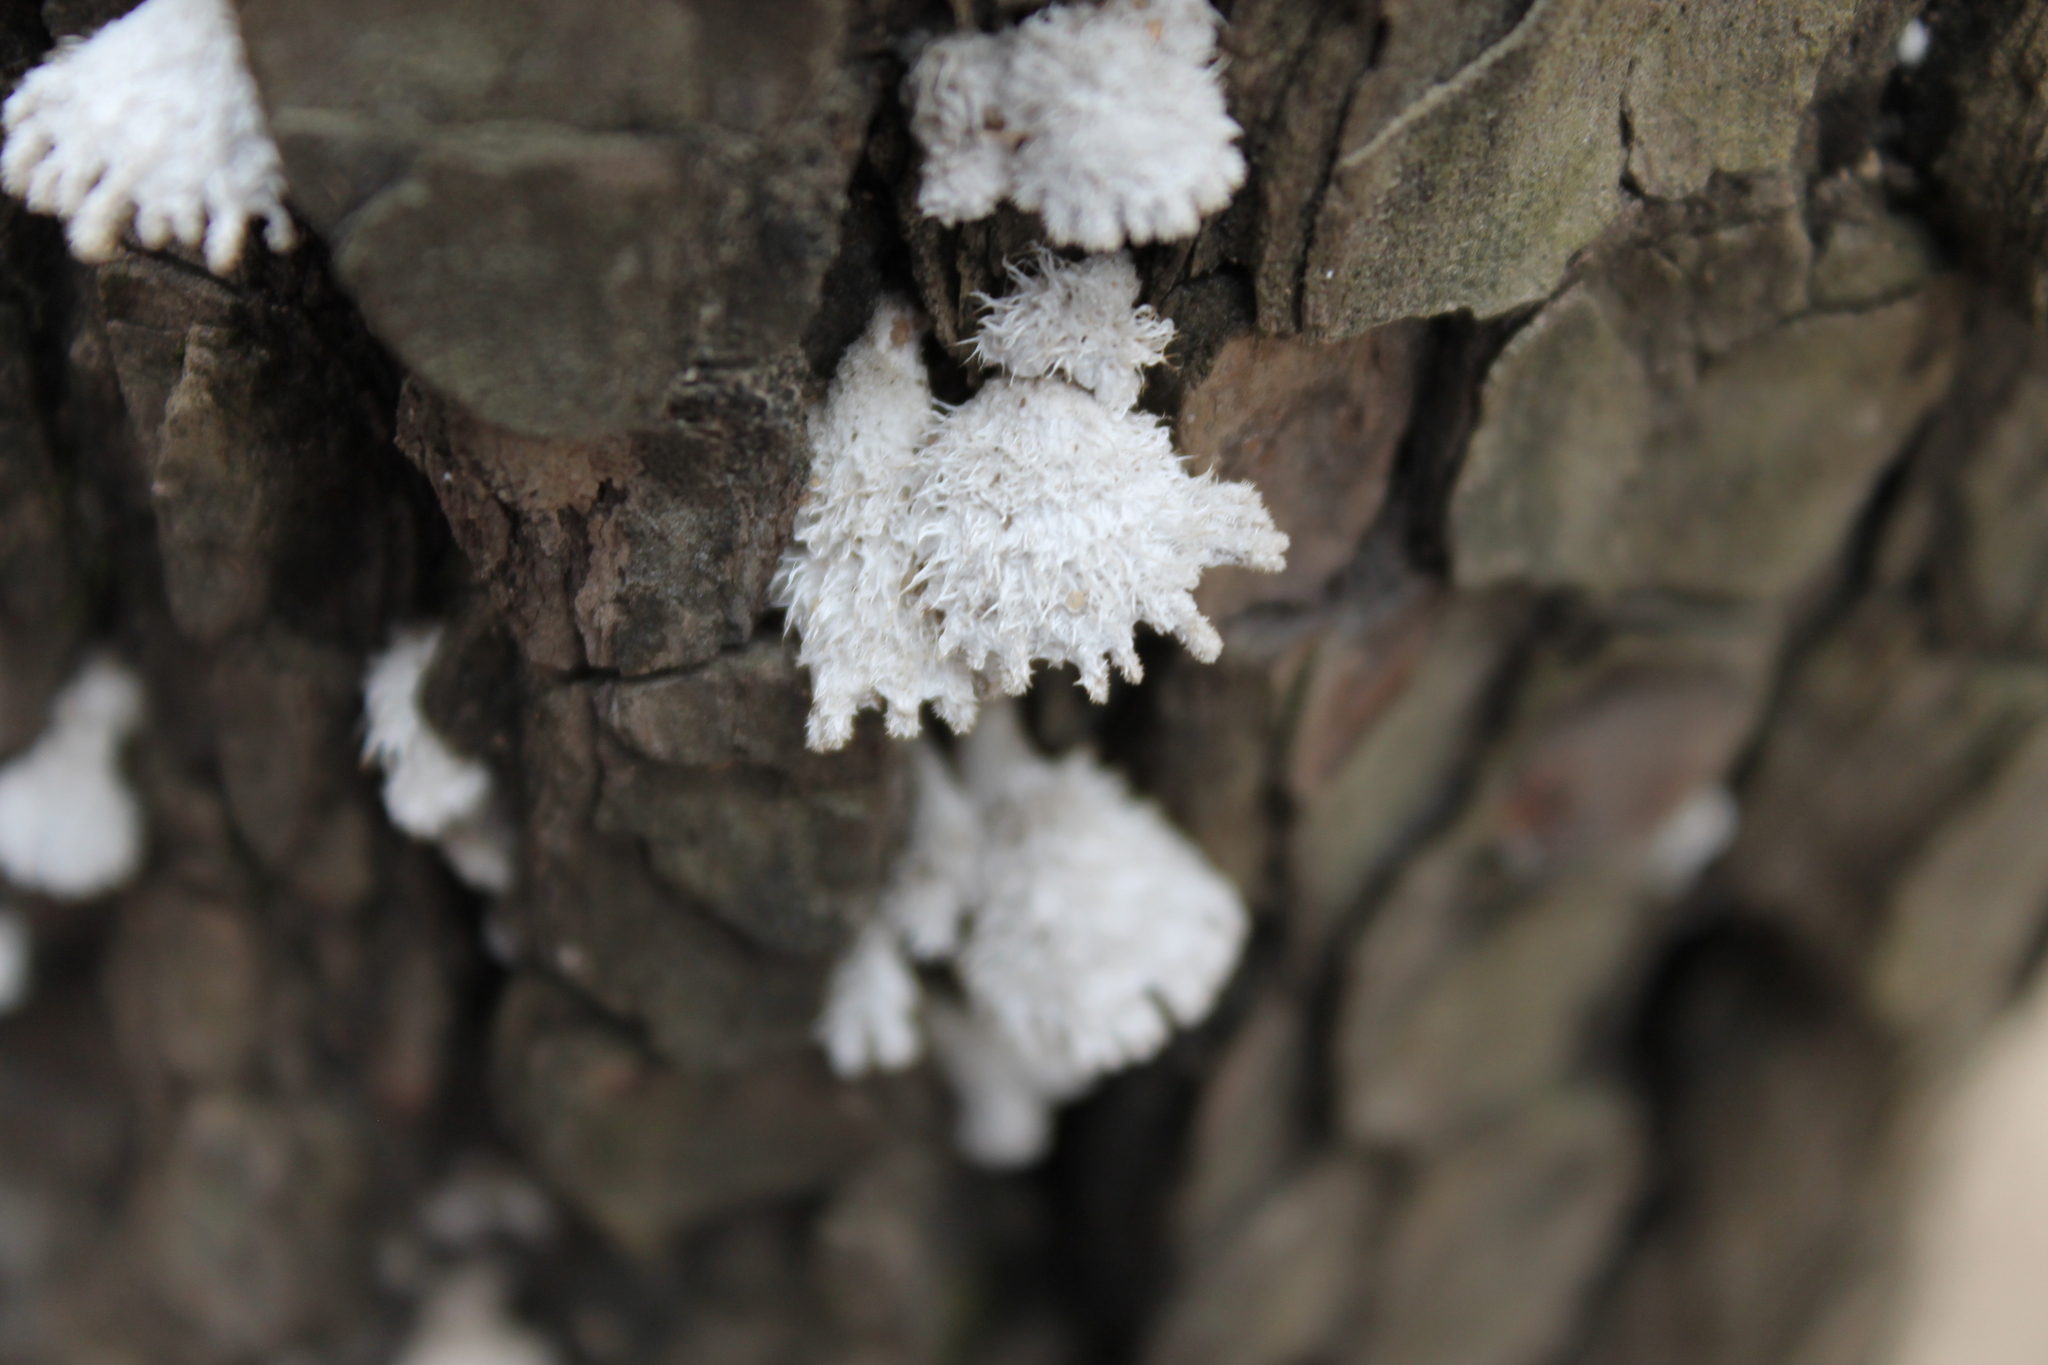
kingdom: Fungi
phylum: Basidiomycota
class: Agaricomycetes
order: Agaricales
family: Schizophyllaceae
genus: Schizophyllum
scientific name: Schizophyllum commune
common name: Common porecrust
